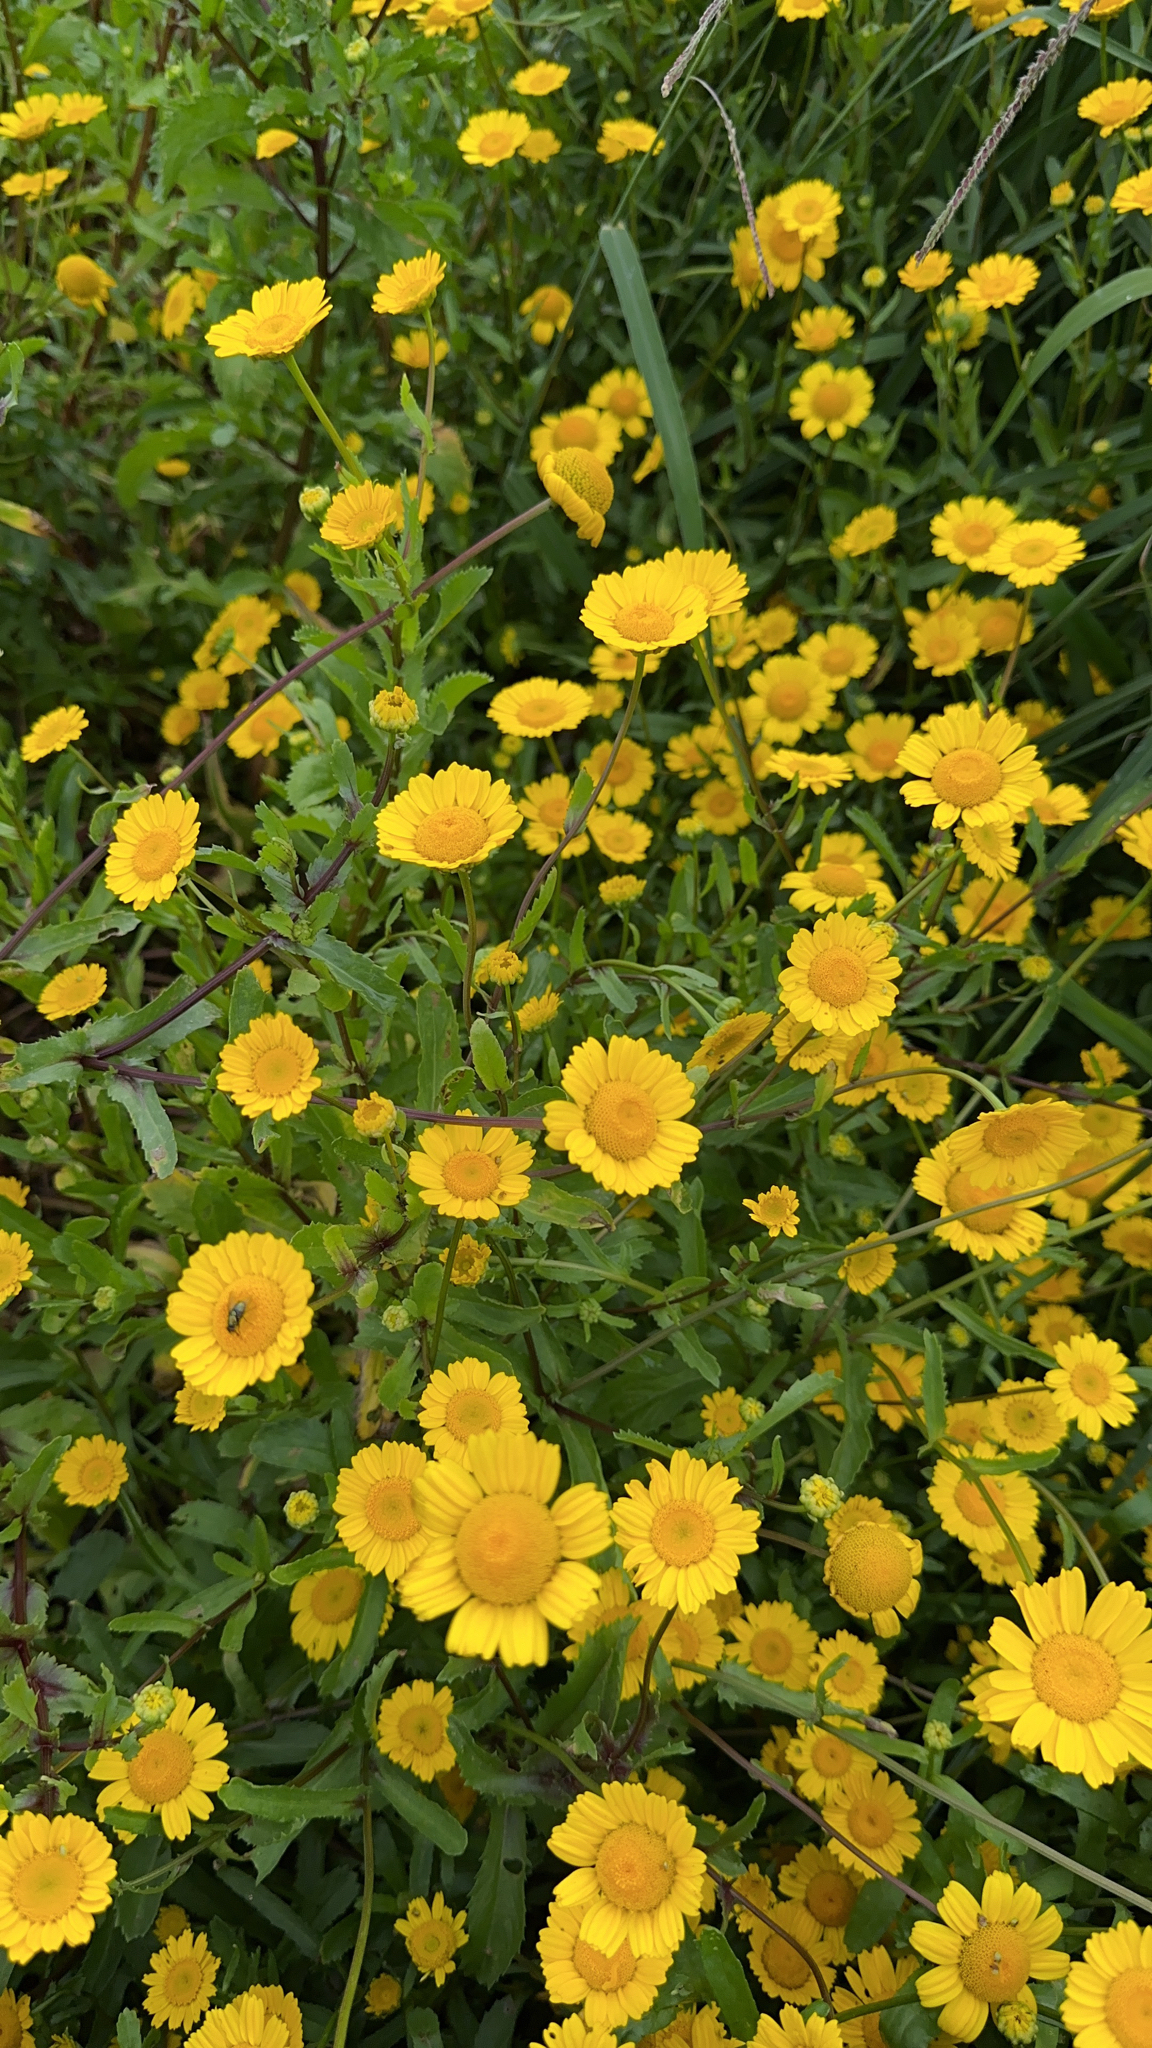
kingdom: Plantae
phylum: Tracheophyta
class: Magnoliopsida
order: Asterales
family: Asteraceae
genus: Coleostephus
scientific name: Coleostephus myconis
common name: Mediterranean marigold
